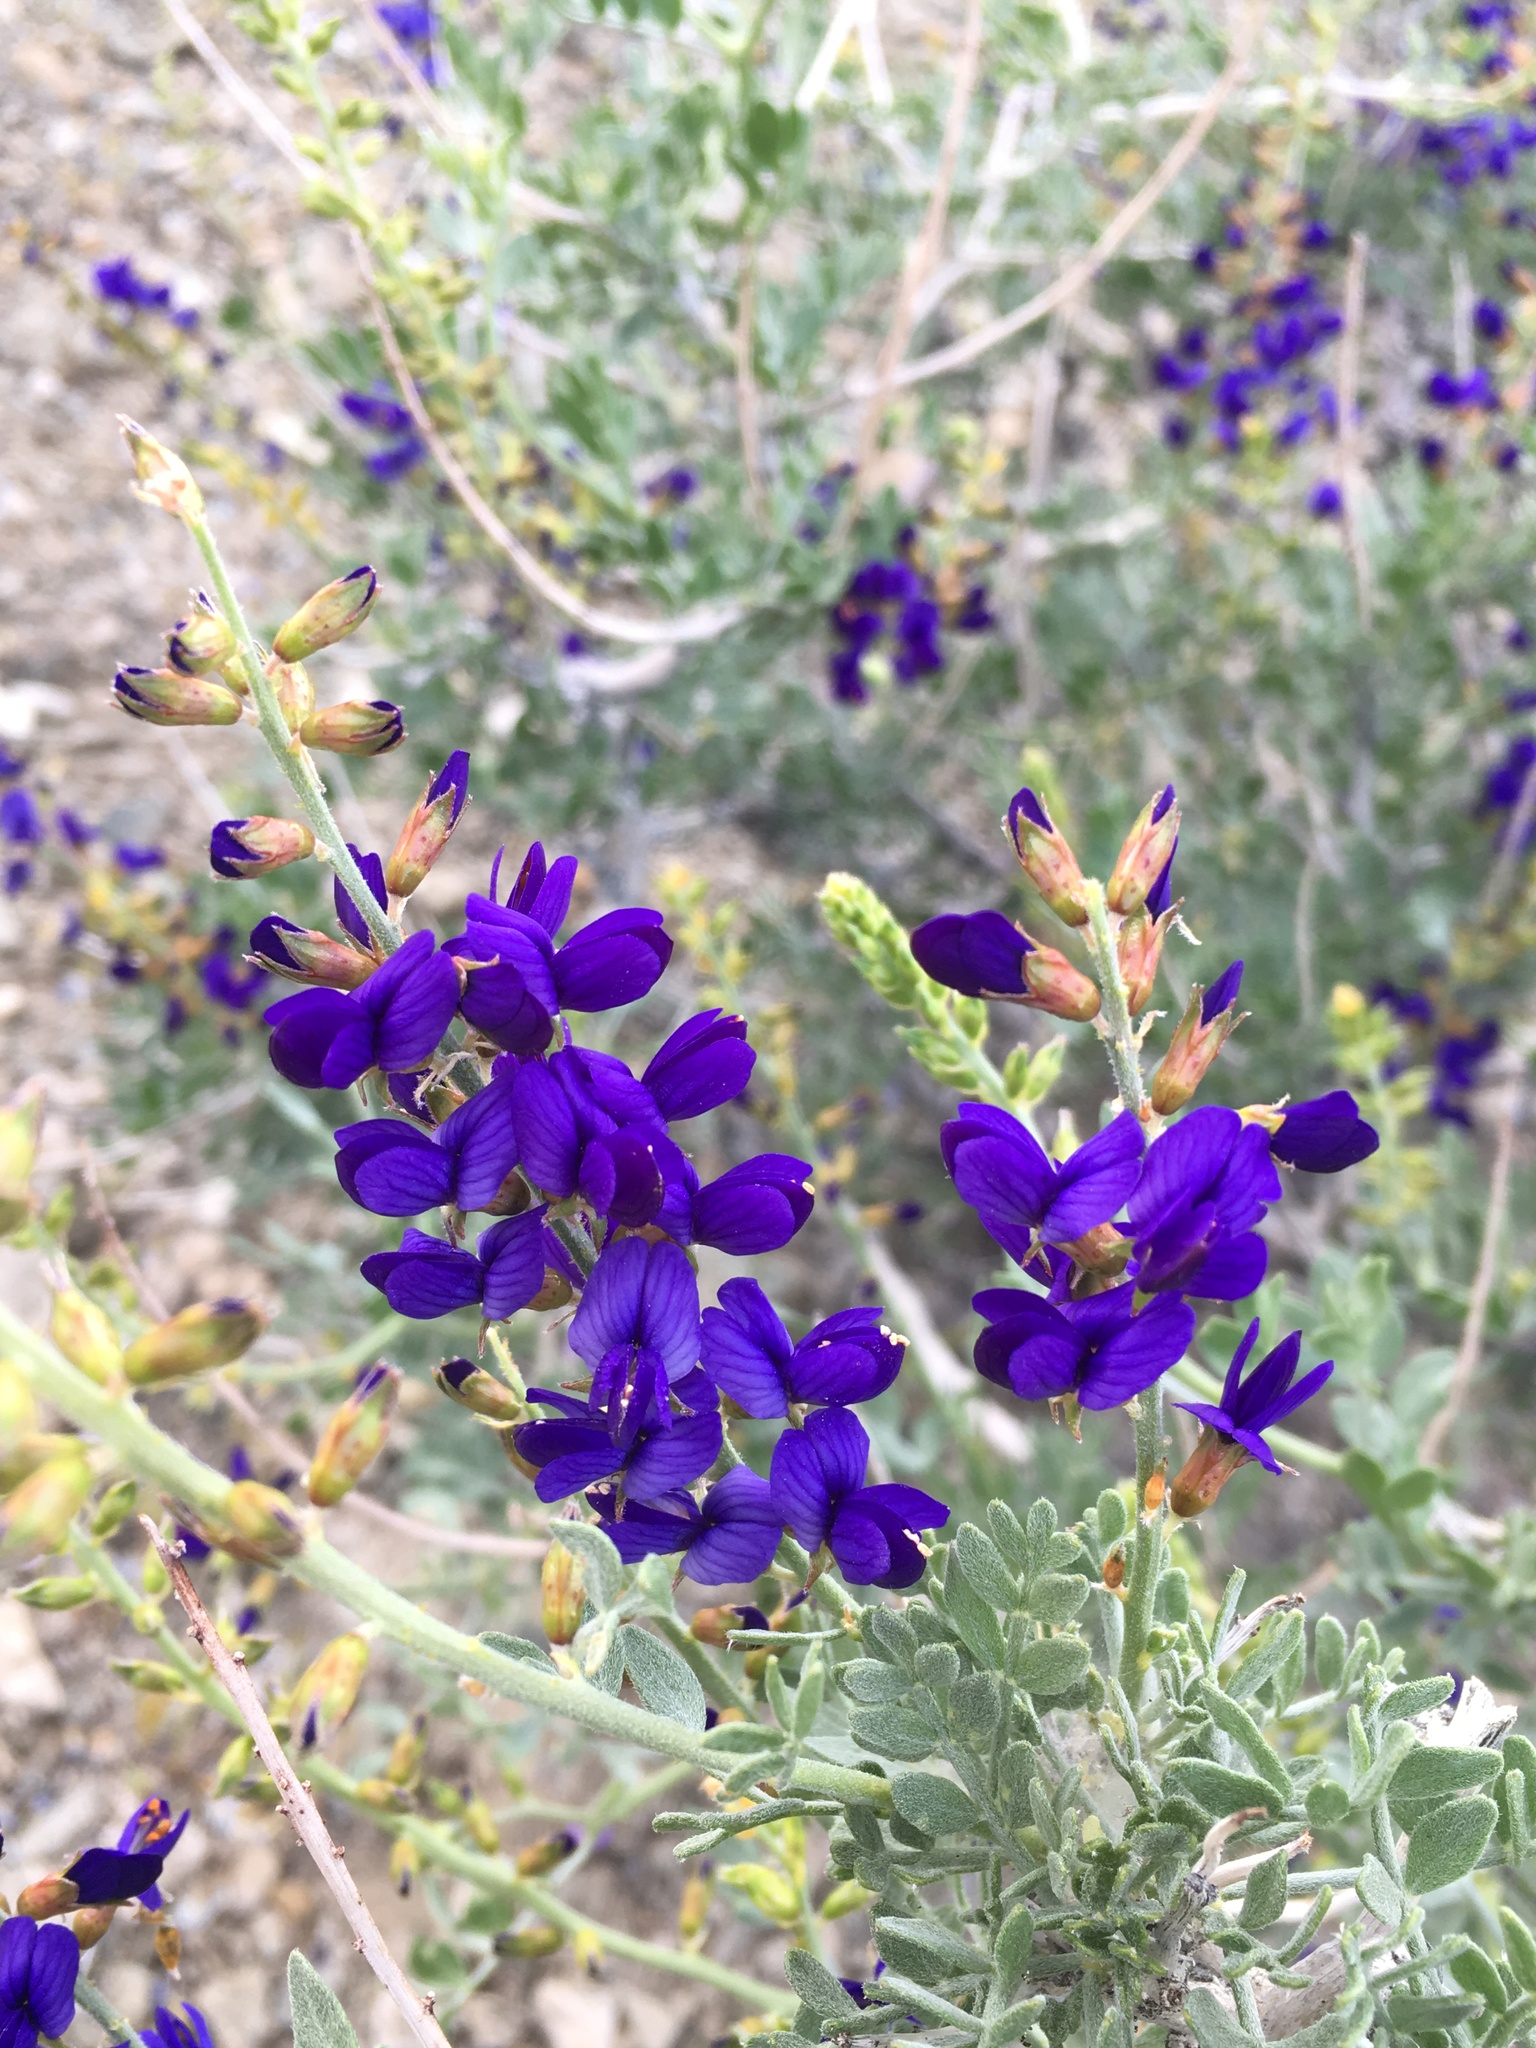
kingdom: Plantae
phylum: Tracheophyta
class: Magnoliopsida
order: Fabales
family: Fabaceae
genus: Psorothamnus
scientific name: Psorothamnus arborescens
